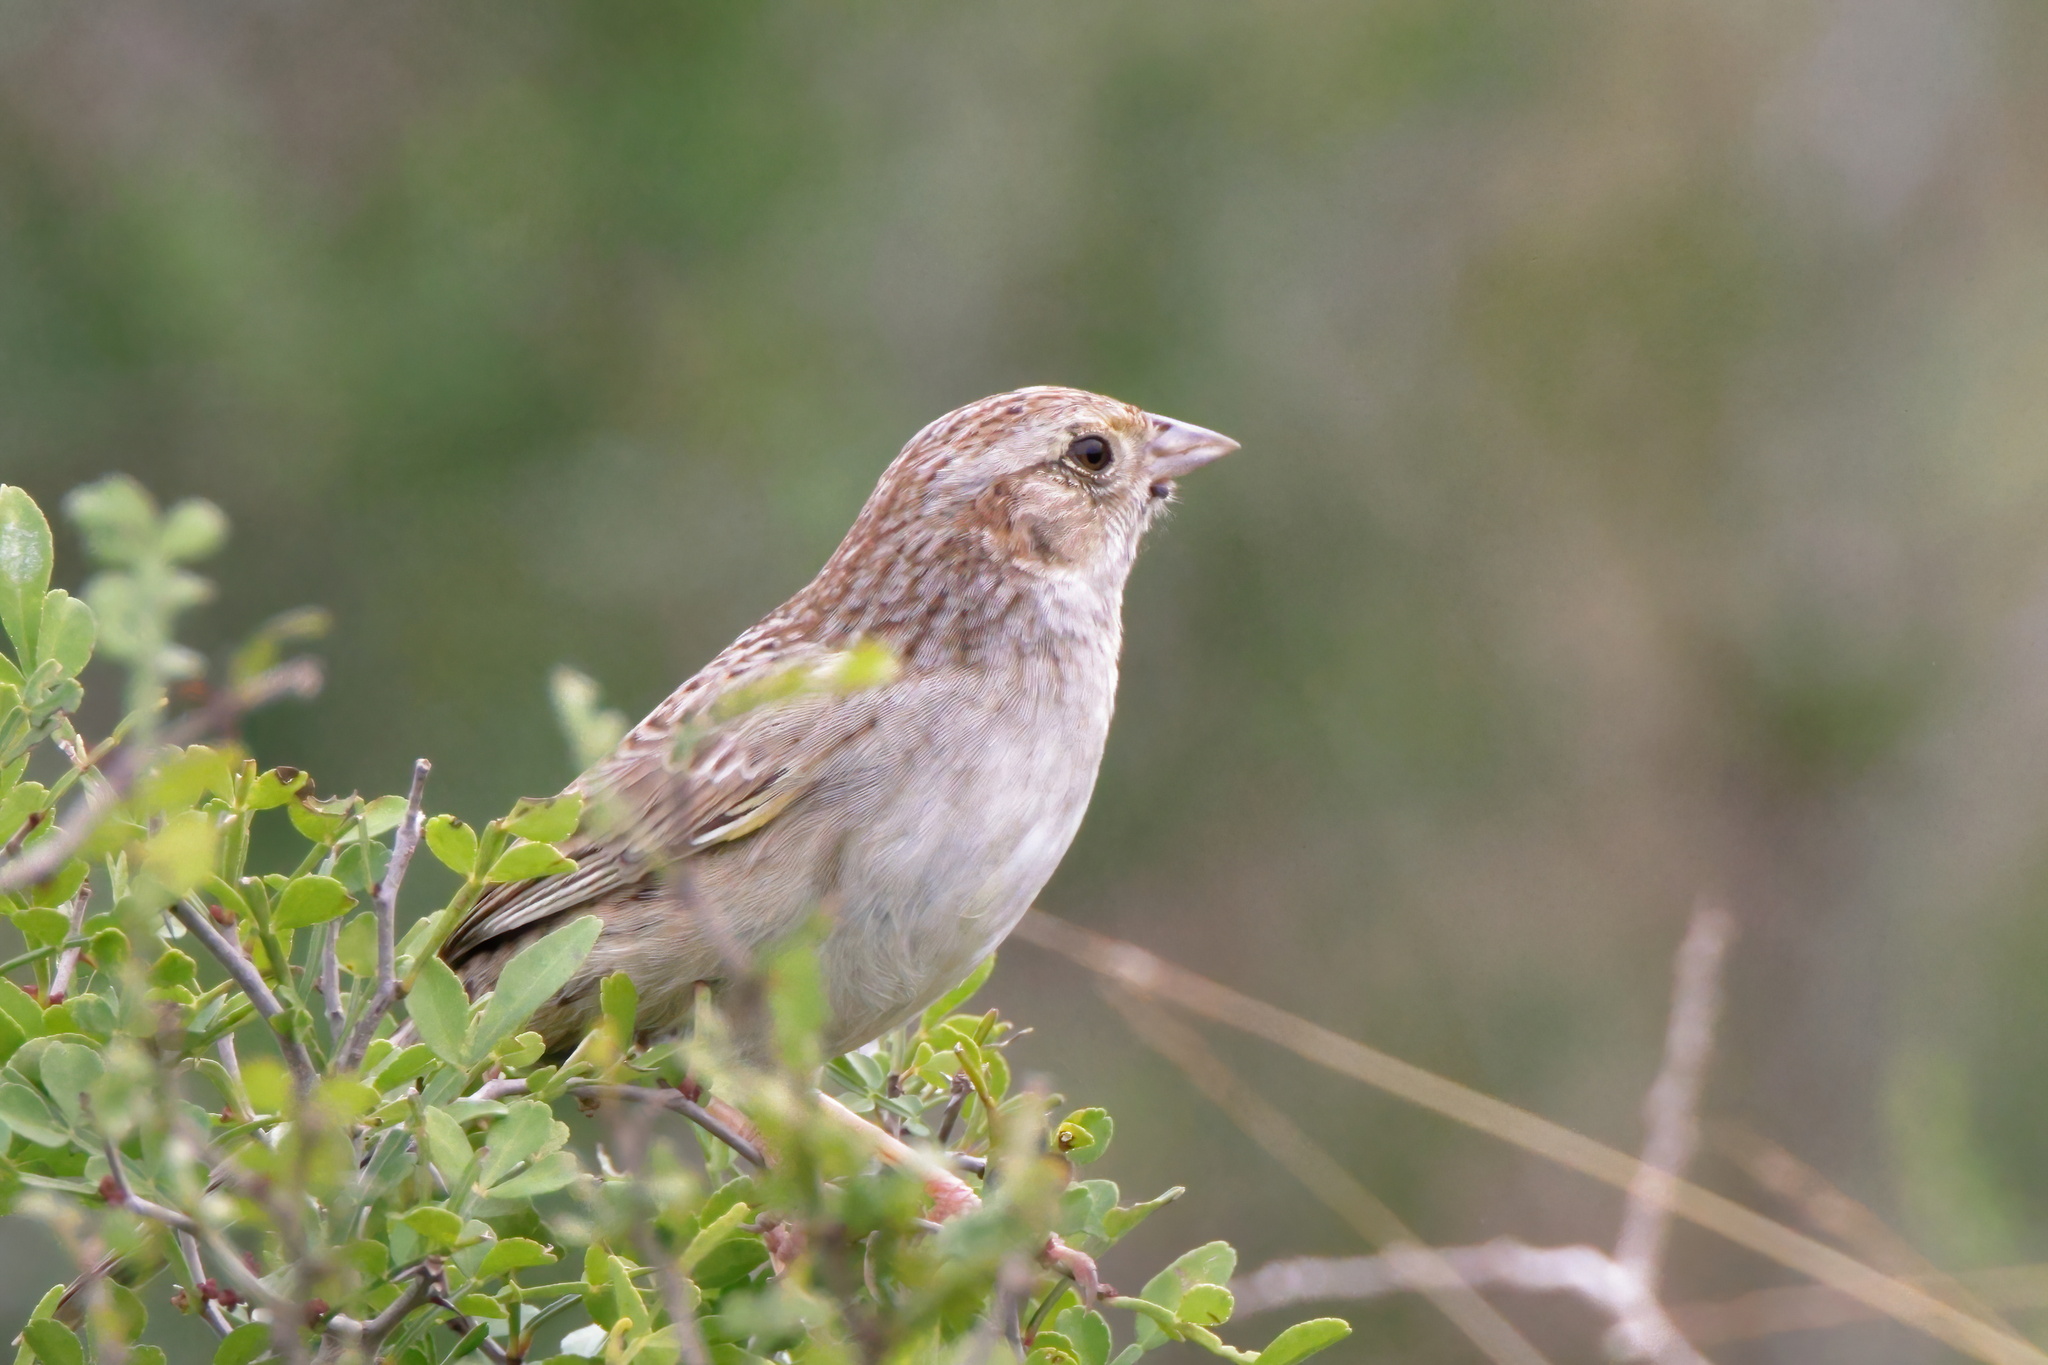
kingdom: Animalia
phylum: Chordata
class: Aves
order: Passeriformes
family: Passerellidae
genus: Peucaea
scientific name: Peucaea cassinii
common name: Cassin's sparrow
